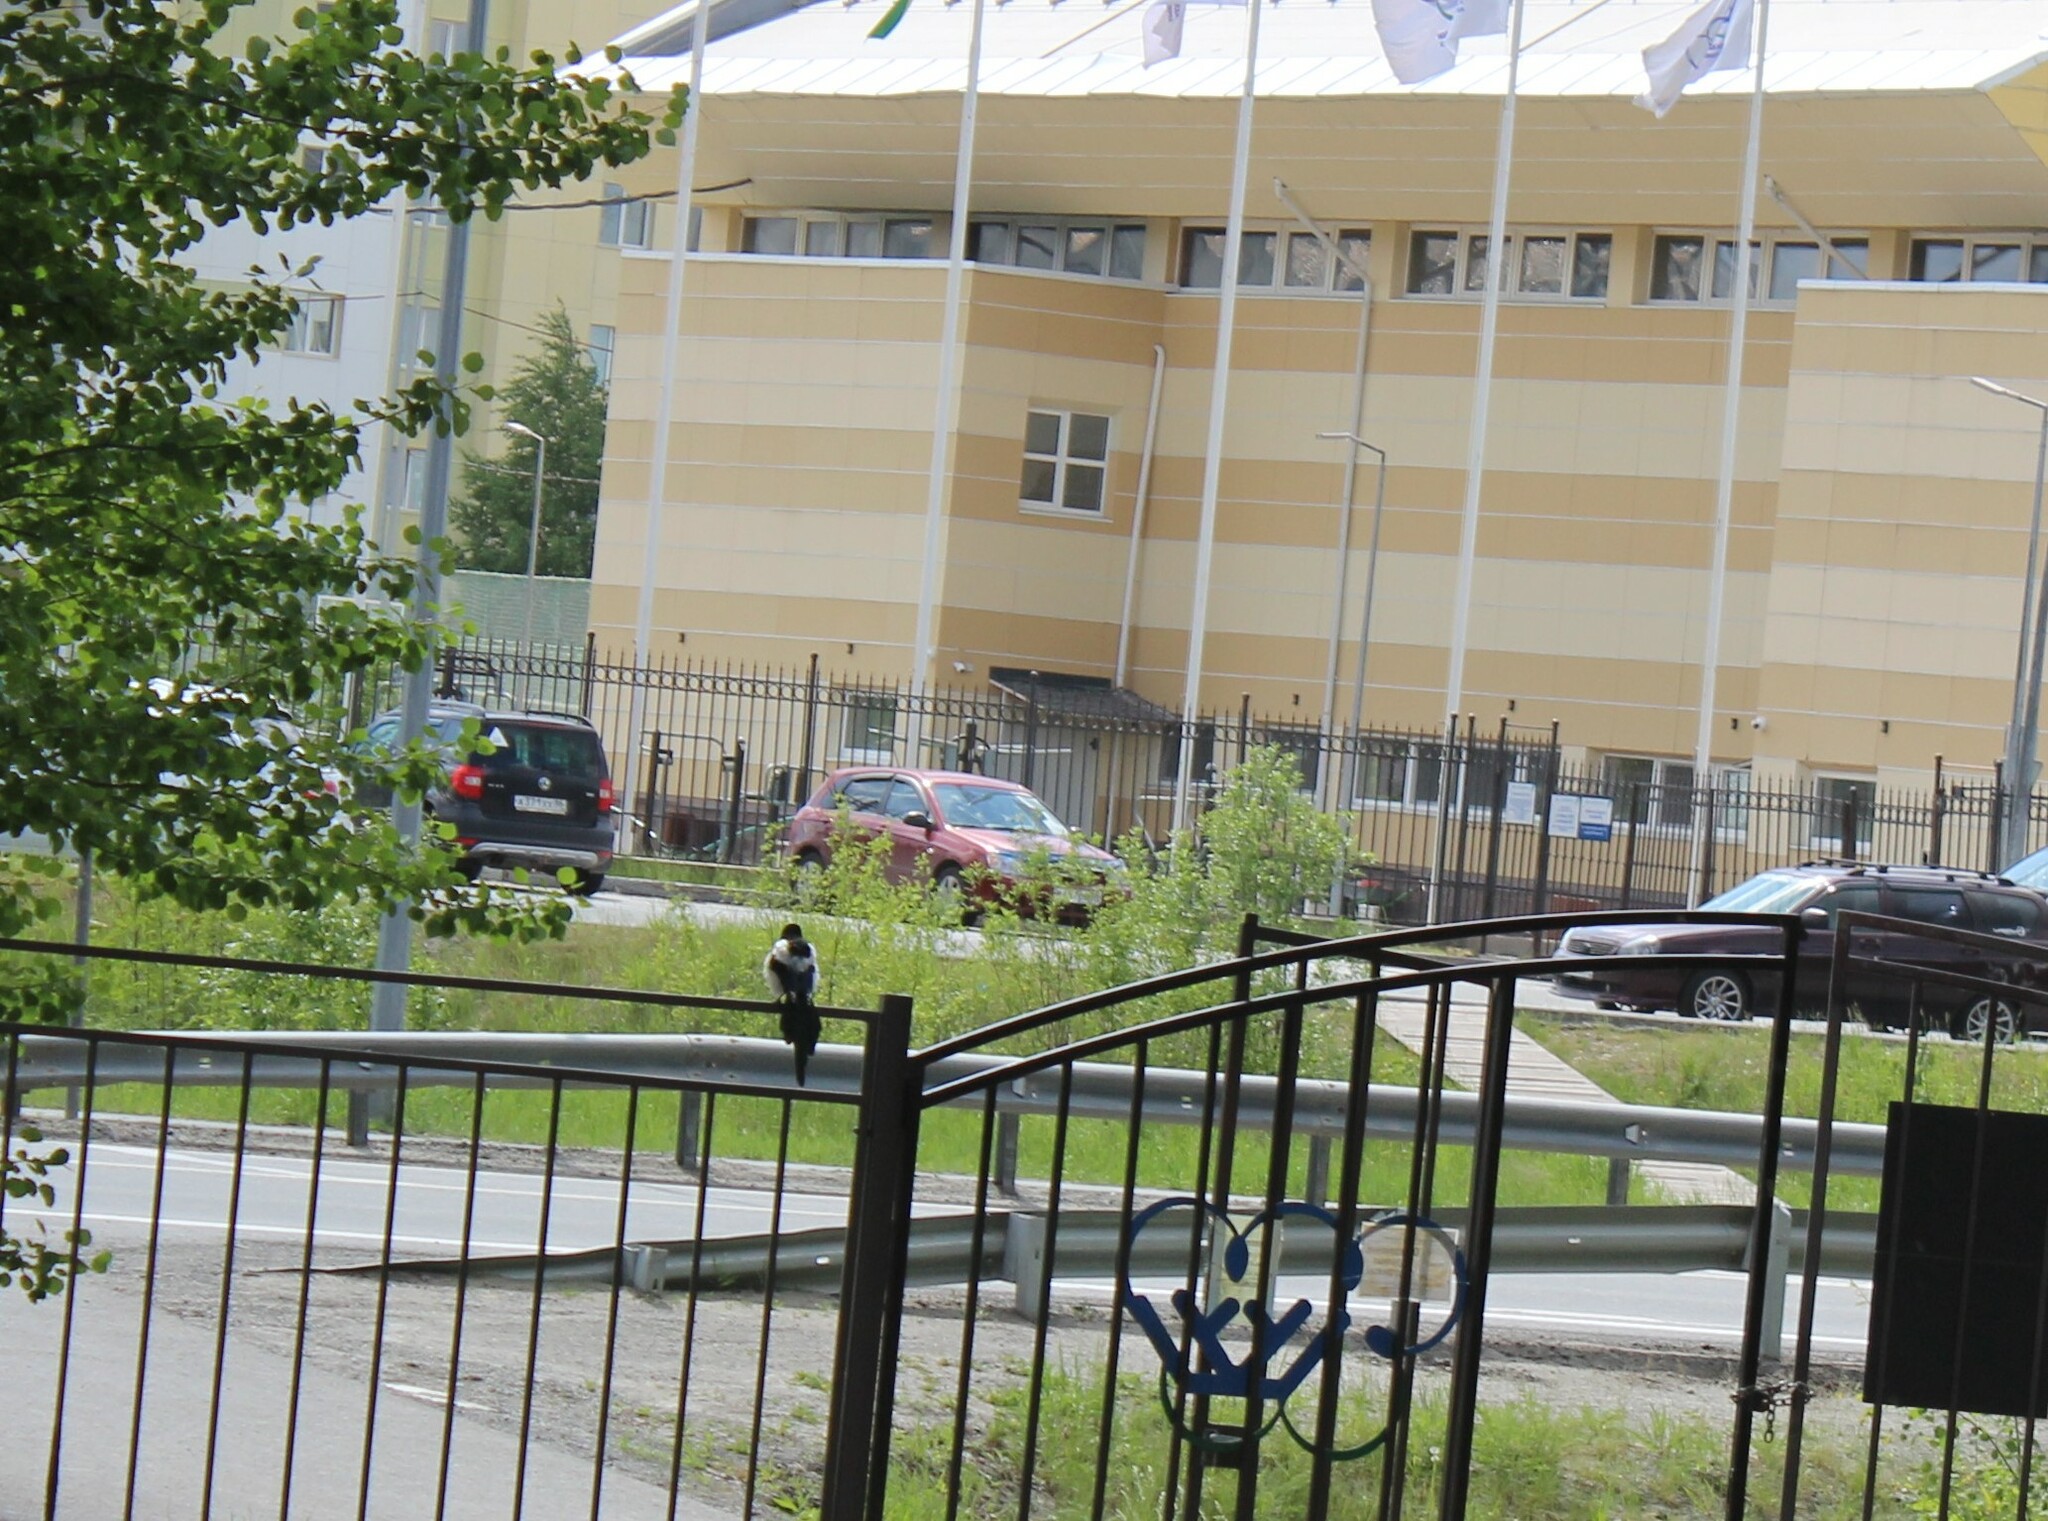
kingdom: Animalia
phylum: Chordata
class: Aves
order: Passeriformes
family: Corvidae
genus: Pica
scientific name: Pica pica
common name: Eurasian magpie
